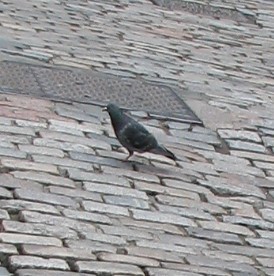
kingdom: Animalia
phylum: Chordata
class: Aves
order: Columbiformes
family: Columbidae
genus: Columba
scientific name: Columba livia
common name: Rock pigeon
